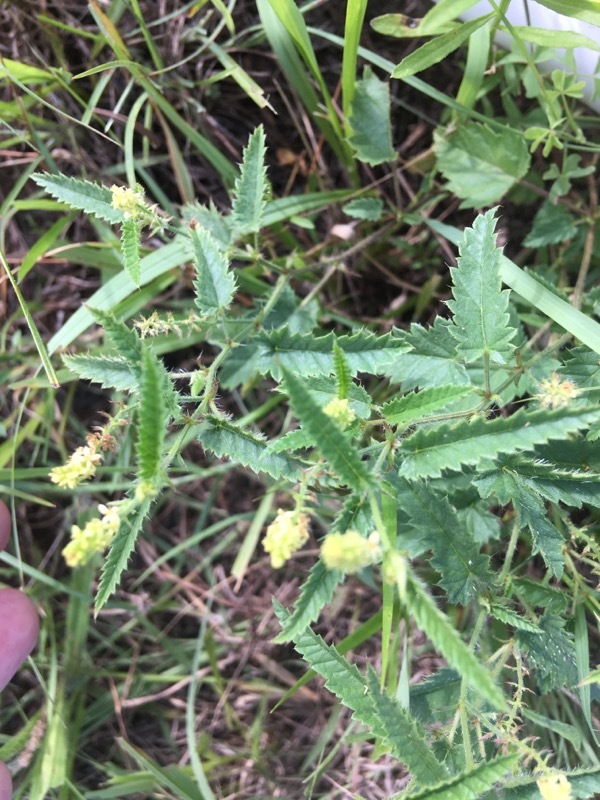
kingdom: Plantae
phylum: Tracheophyta
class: Magnoliopsida
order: Malpighiales
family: Euphorbiaceae
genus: Tragia
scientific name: Tragia ramosa
